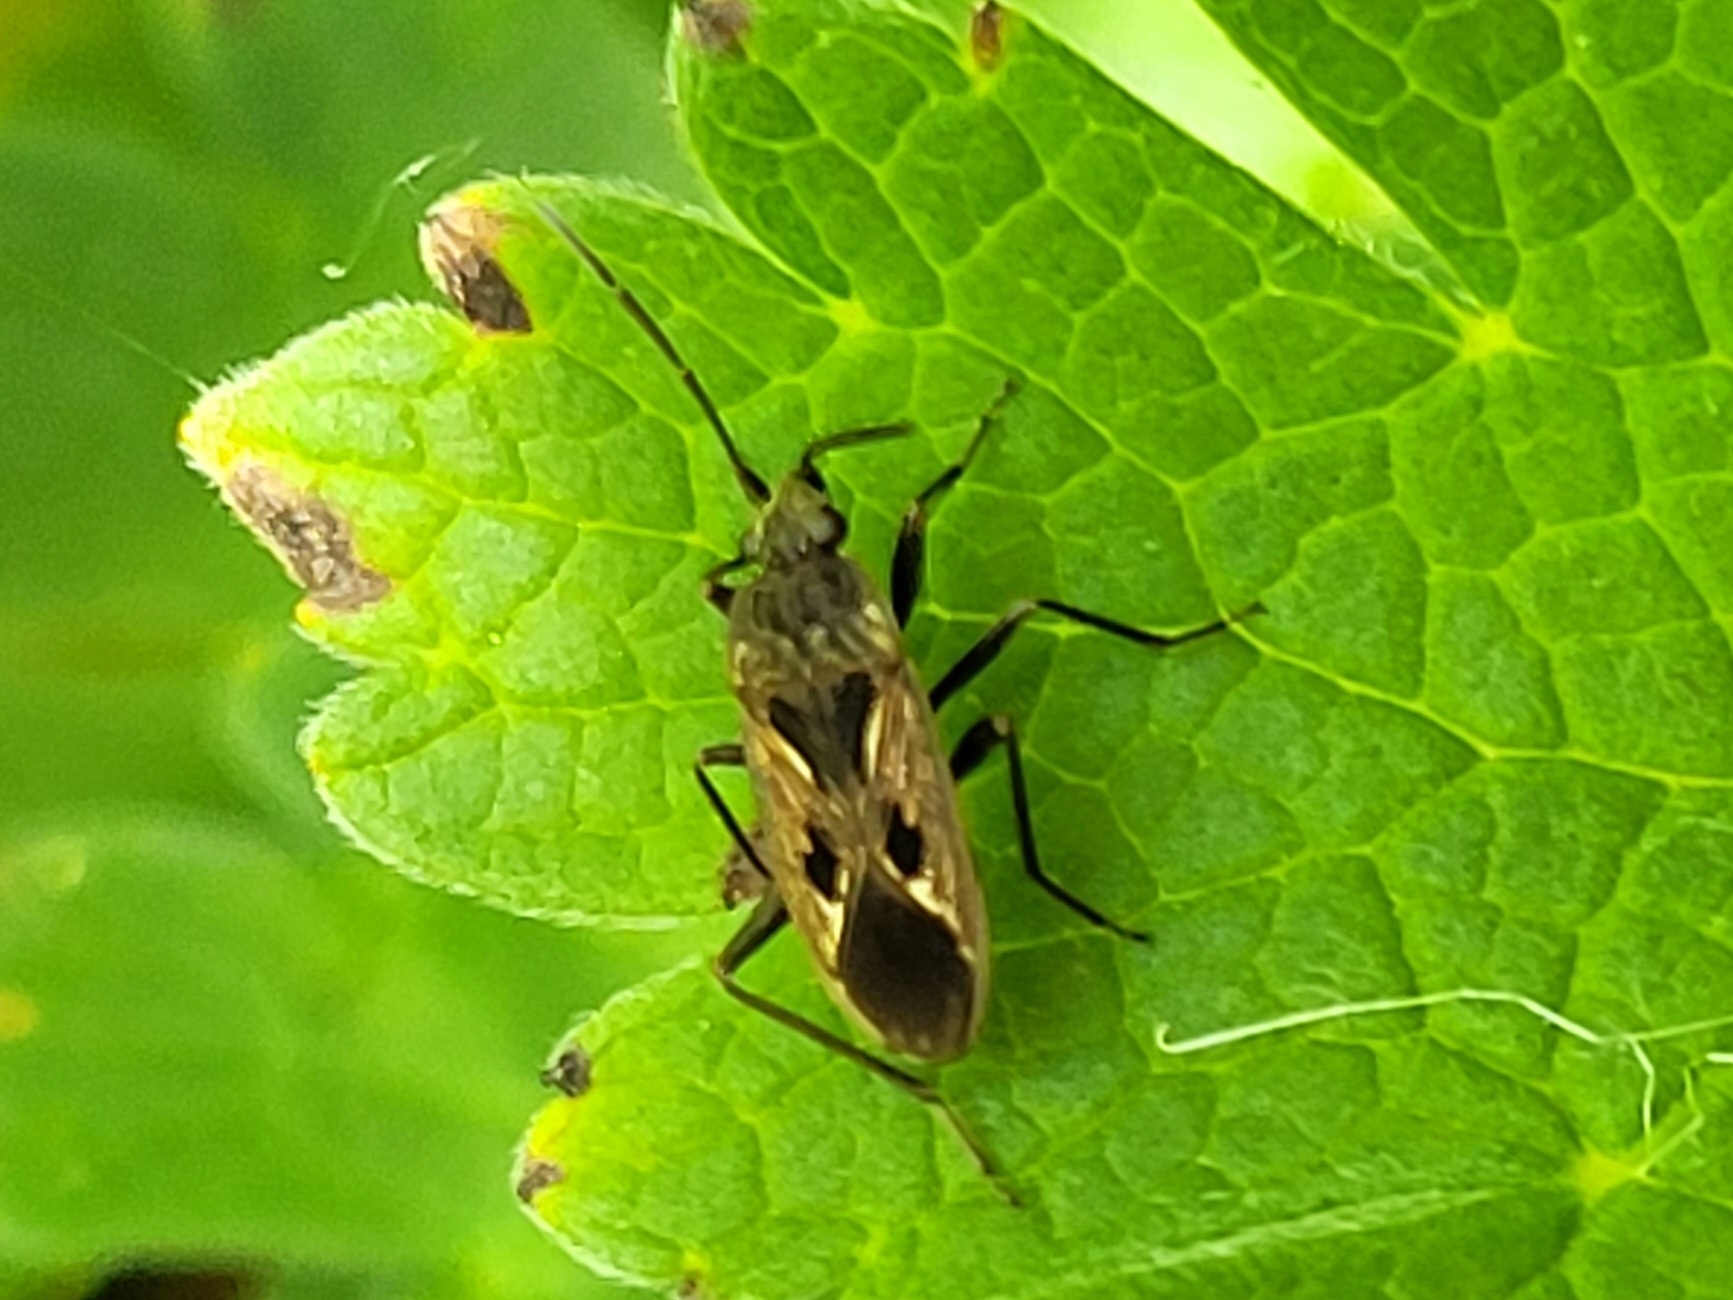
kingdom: Animalia
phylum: Arthropoda
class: Insecta
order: Hemiptera
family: Rhyparochromidae
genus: Rhyparochromus
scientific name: Rhyparochromus pini
